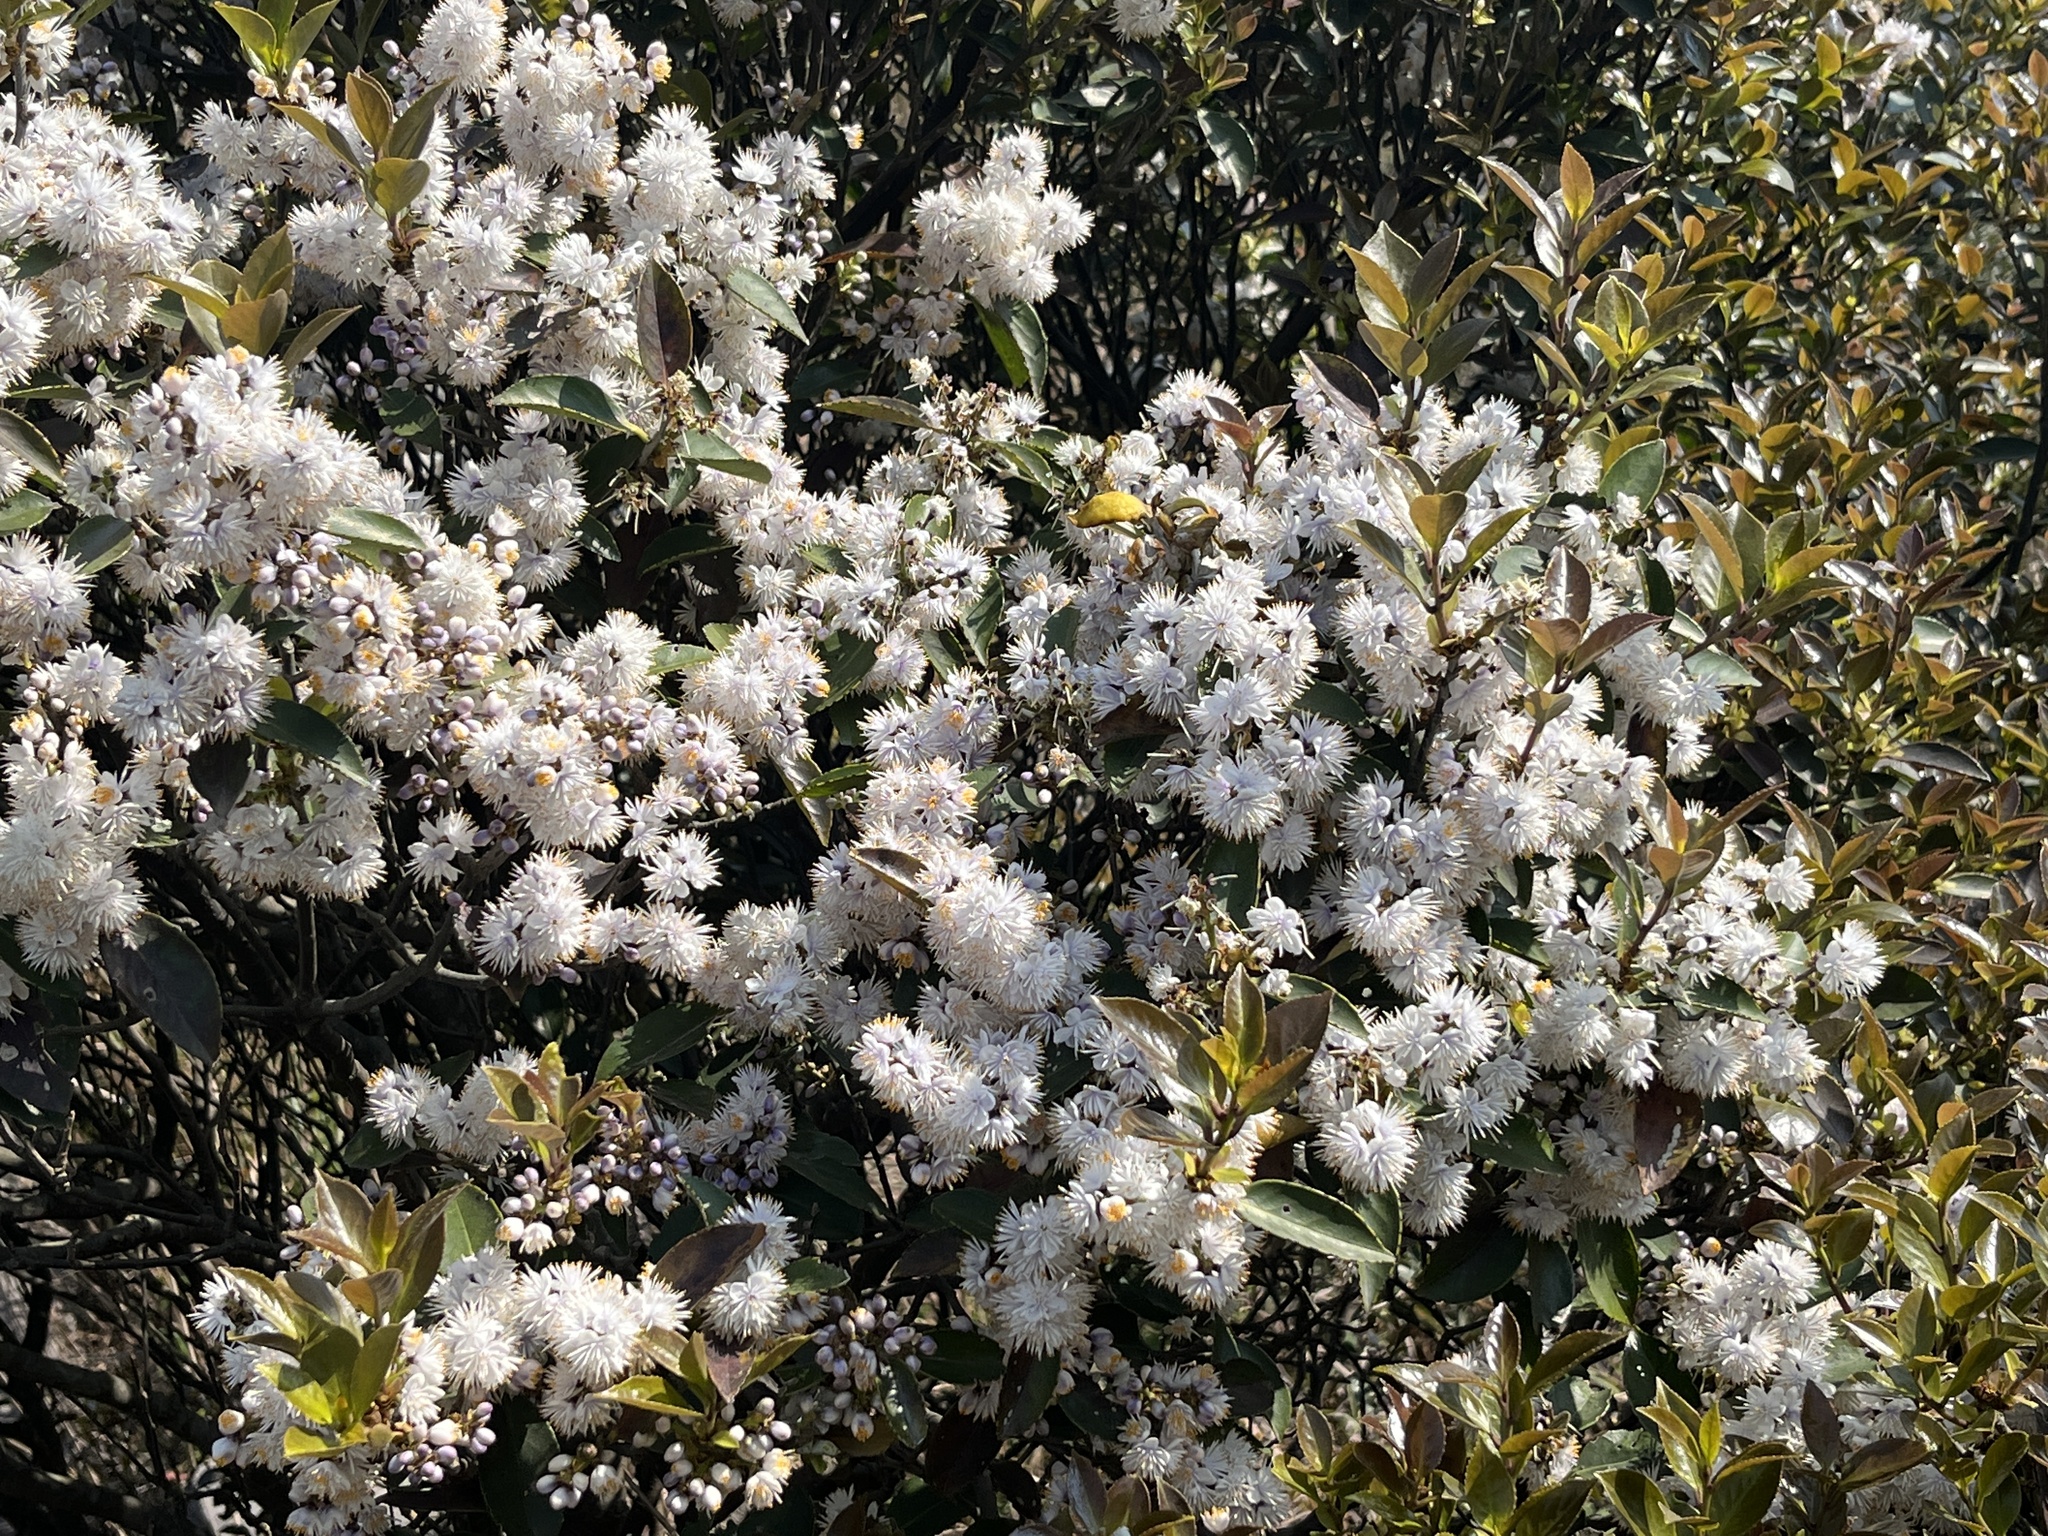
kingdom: Plantae
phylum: Tracheophyta
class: Magnoliopsida
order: Ericales
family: Symplocaceae
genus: Symplocos
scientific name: Symplocos sumuntia
